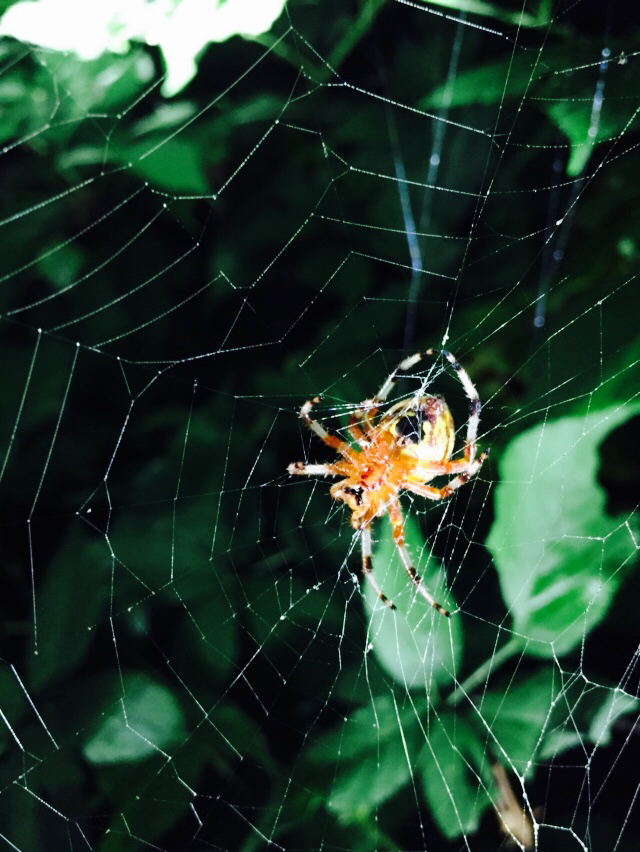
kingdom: Animalia
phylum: Arthropoda
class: Arachnida
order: Araneae
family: Araneidae
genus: Araneus
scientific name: Araneus marmoreus
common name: Marbled orbweaver
